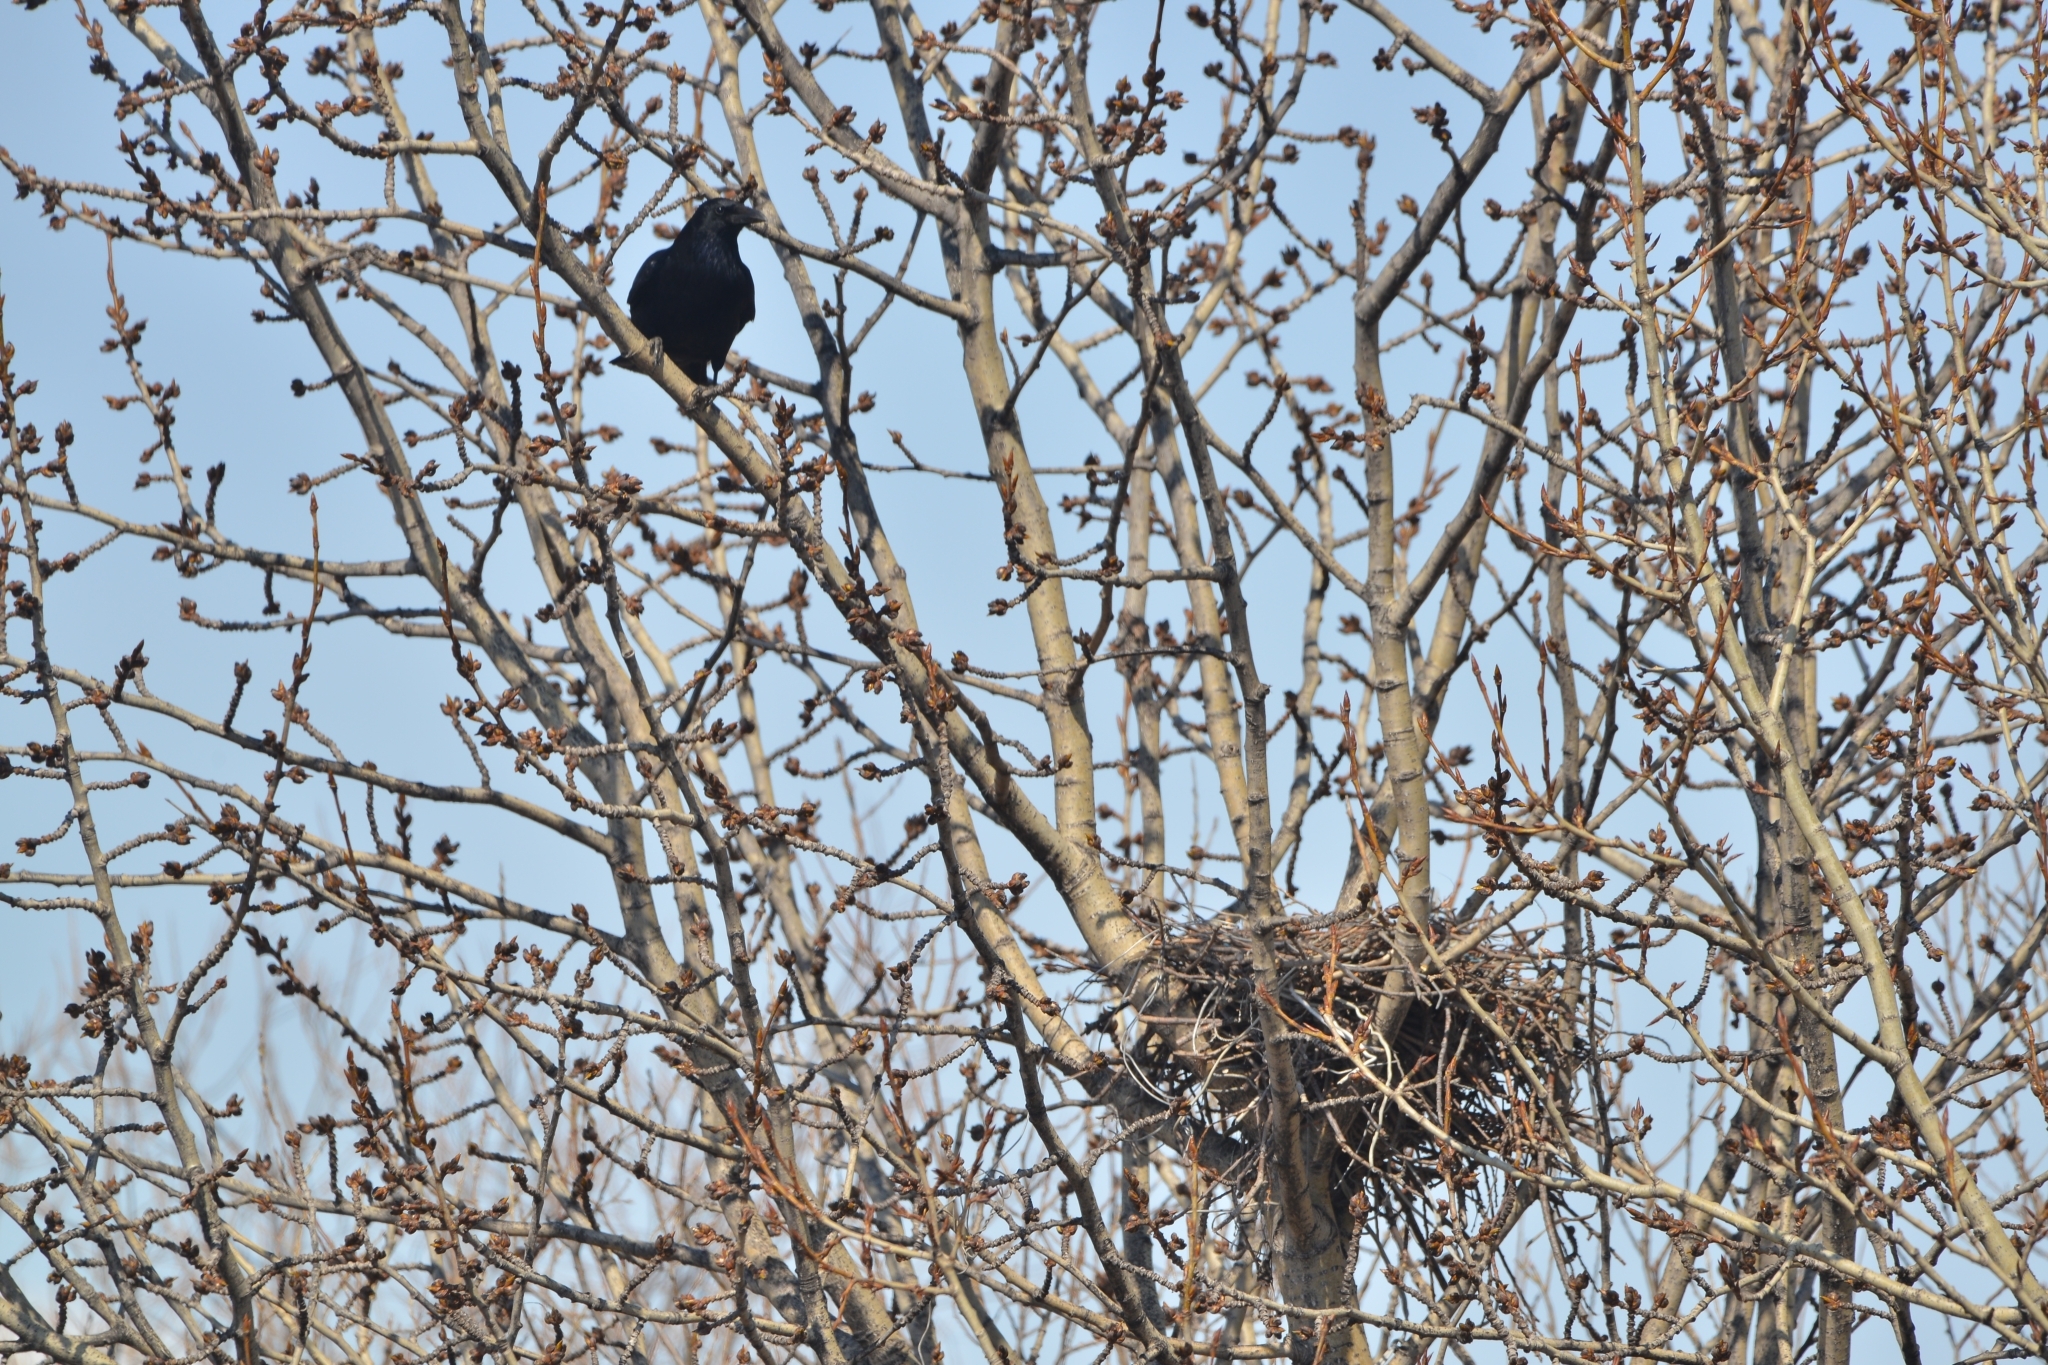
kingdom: Animalia
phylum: Chordata
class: Aves
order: Passeriformes
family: Corvidae
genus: Corvus
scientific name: Corvus corone
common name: Carrion crow
